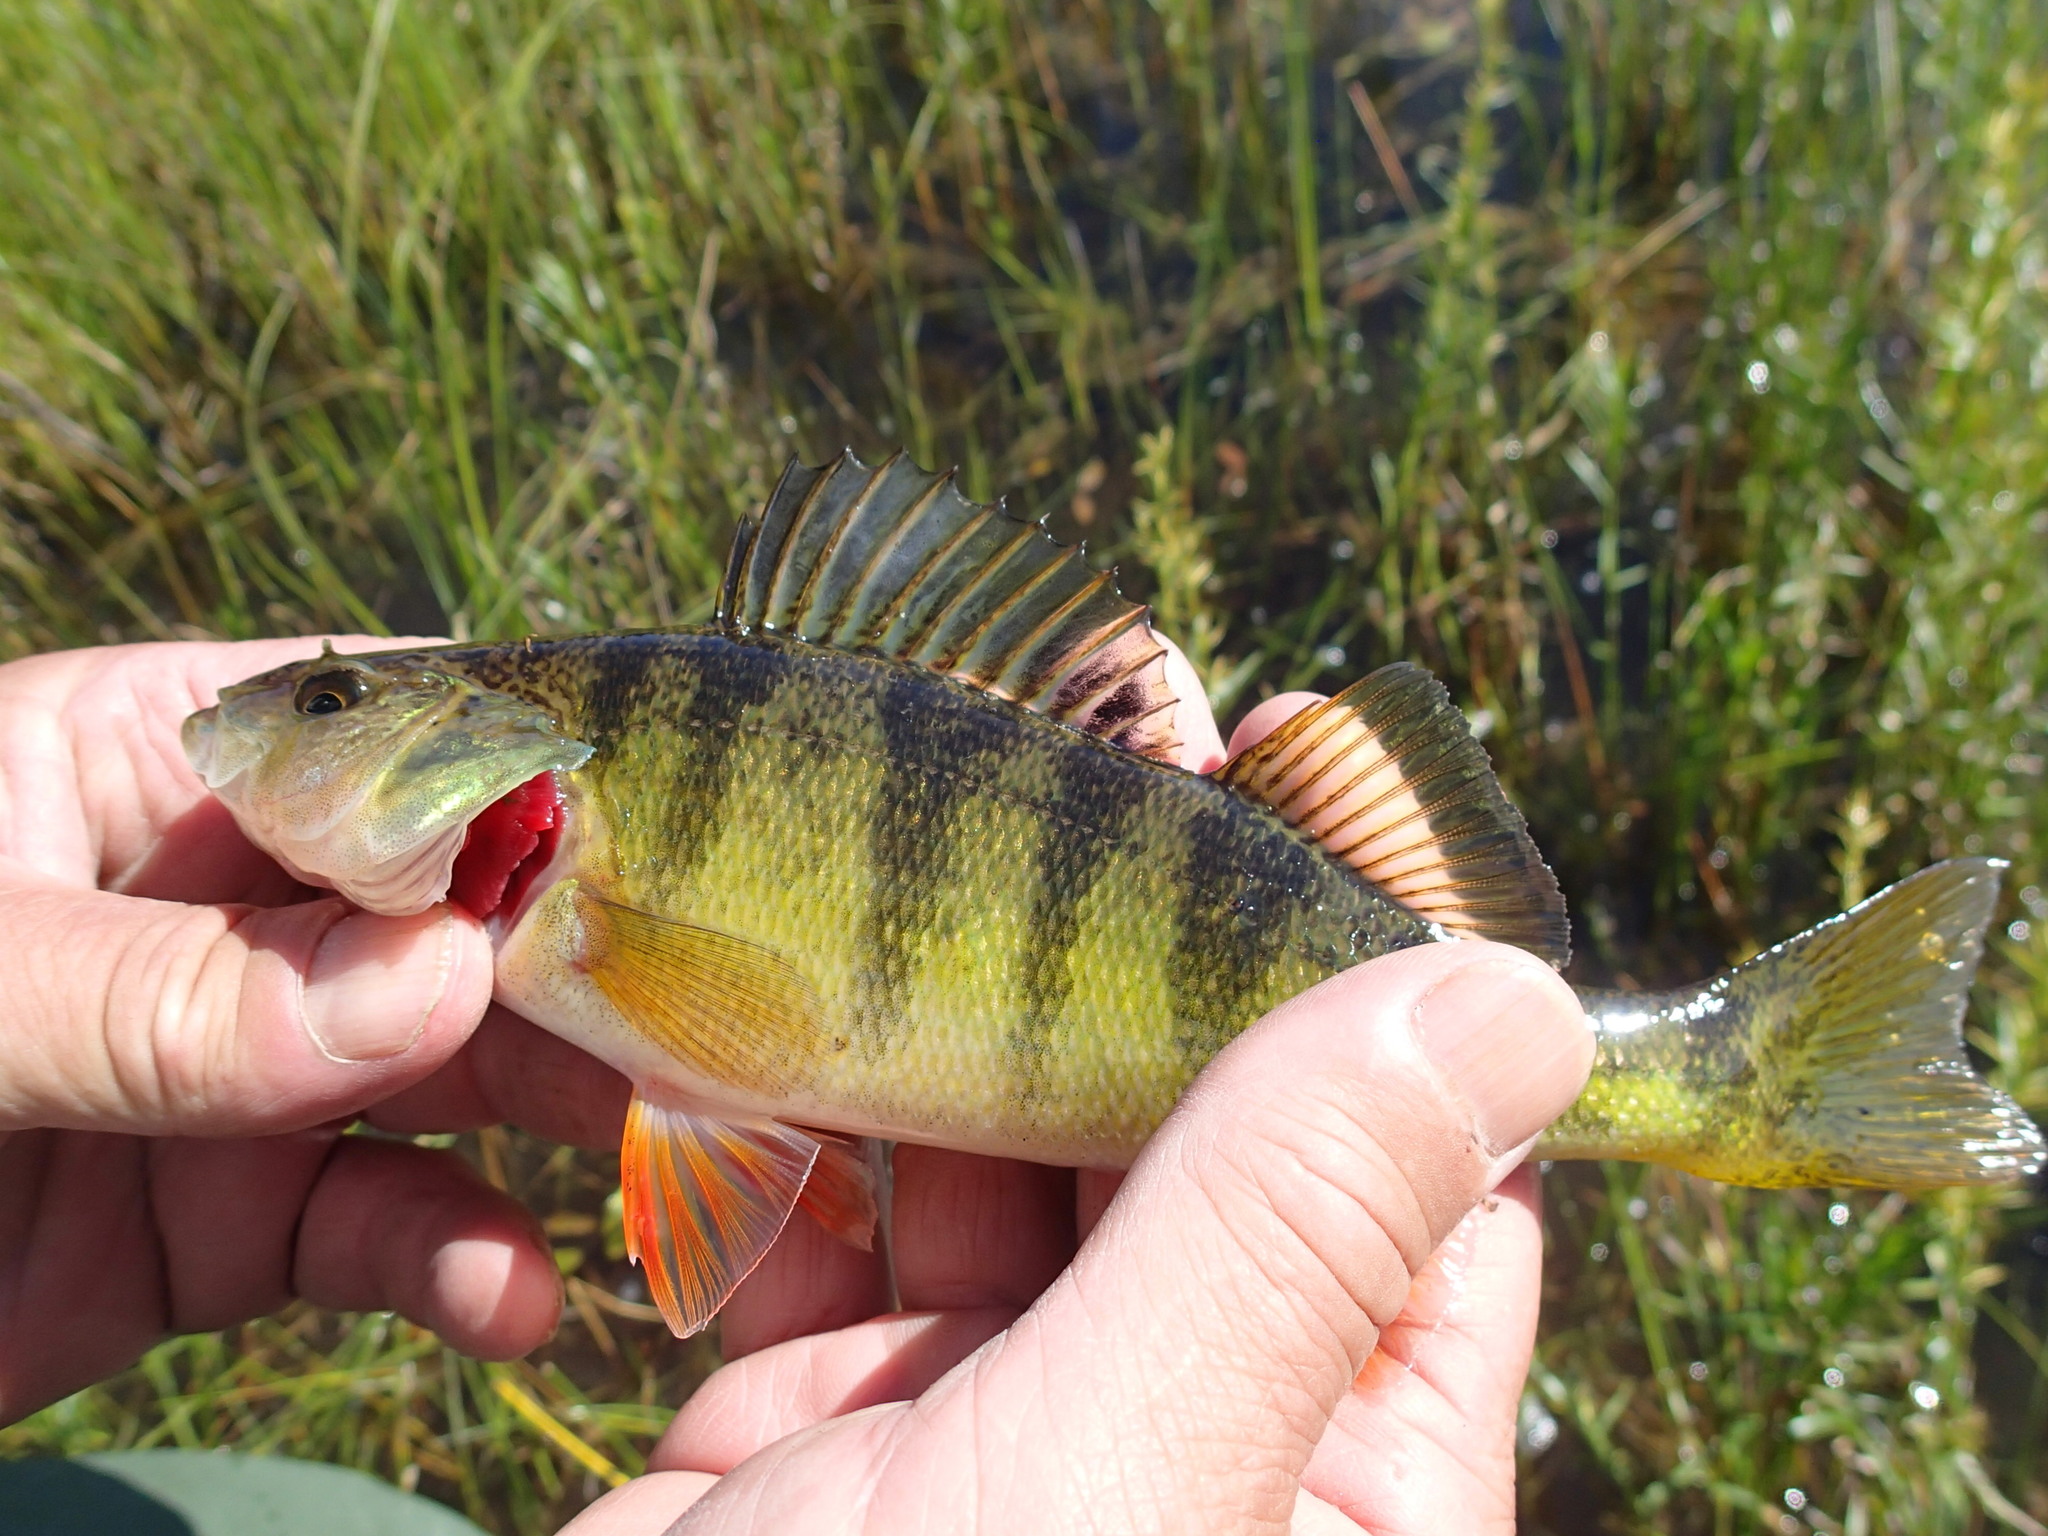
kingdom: Animalia
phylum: Chordata
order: Perciformes
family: Percidae
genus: Perca
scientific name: Perca flavescens
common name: Yellow perch
